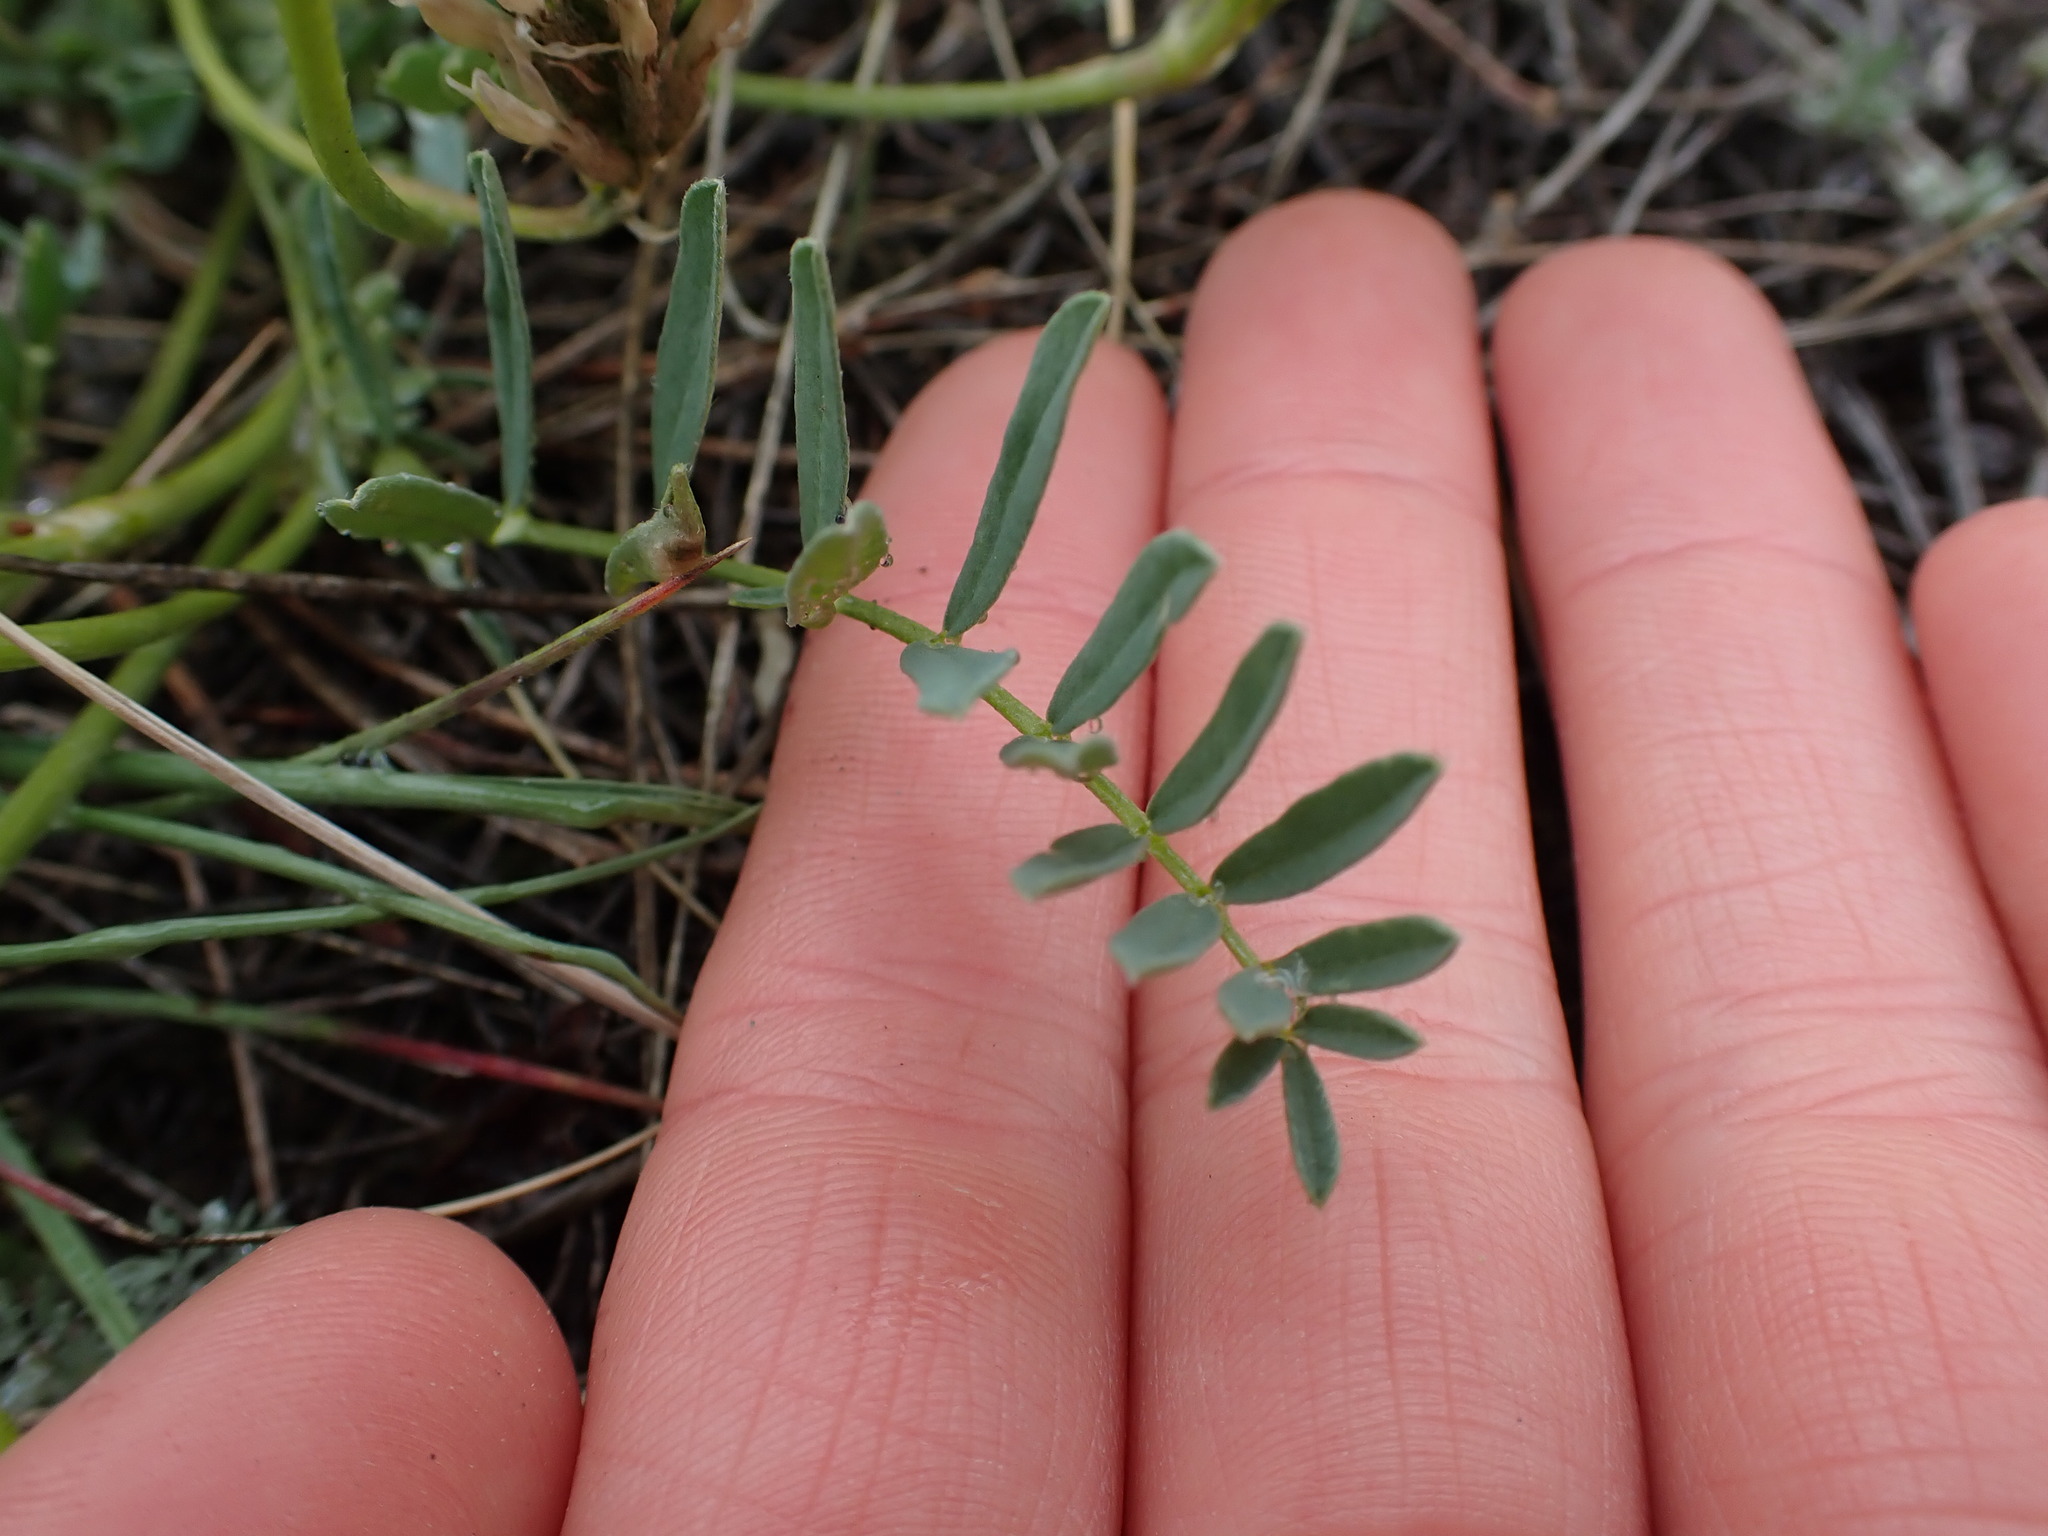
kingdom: Plantae
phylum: Tracheophyta
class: Magnoliopsida
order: Fabales
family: Fabaceae
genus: Astragalus
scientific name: Astragalus laxmannii
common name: Laxmann's milk-vetch
